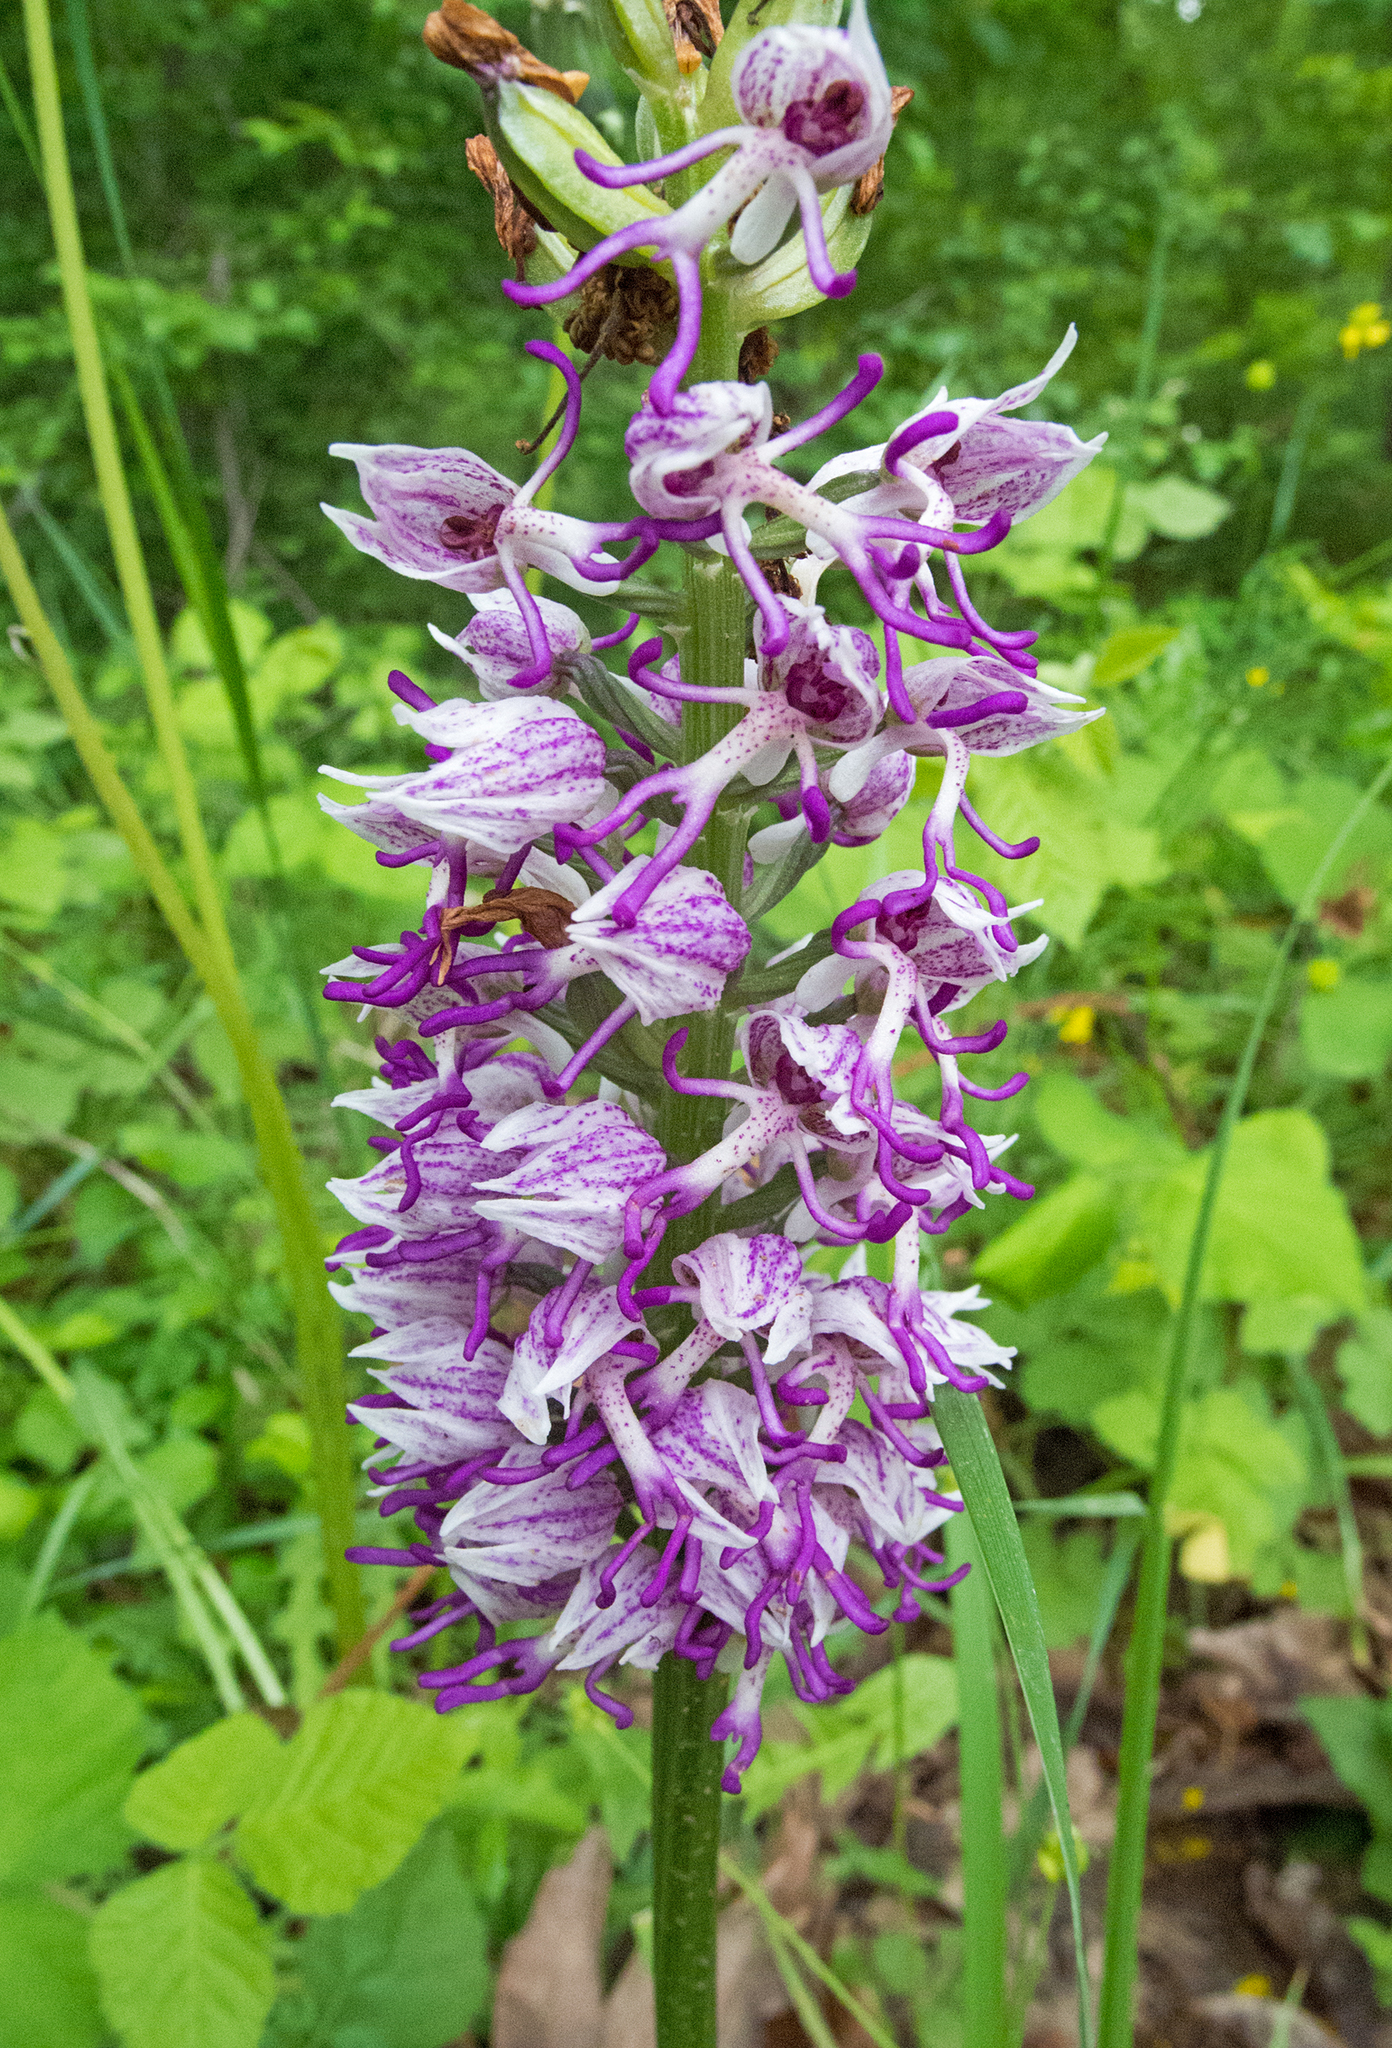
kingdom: Plantae
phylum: Tracheophyta
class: Liliopsida
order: Asparagales
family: Orchidaceae
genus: Orchis
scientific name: Orchis simia
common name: Monkey orchid
